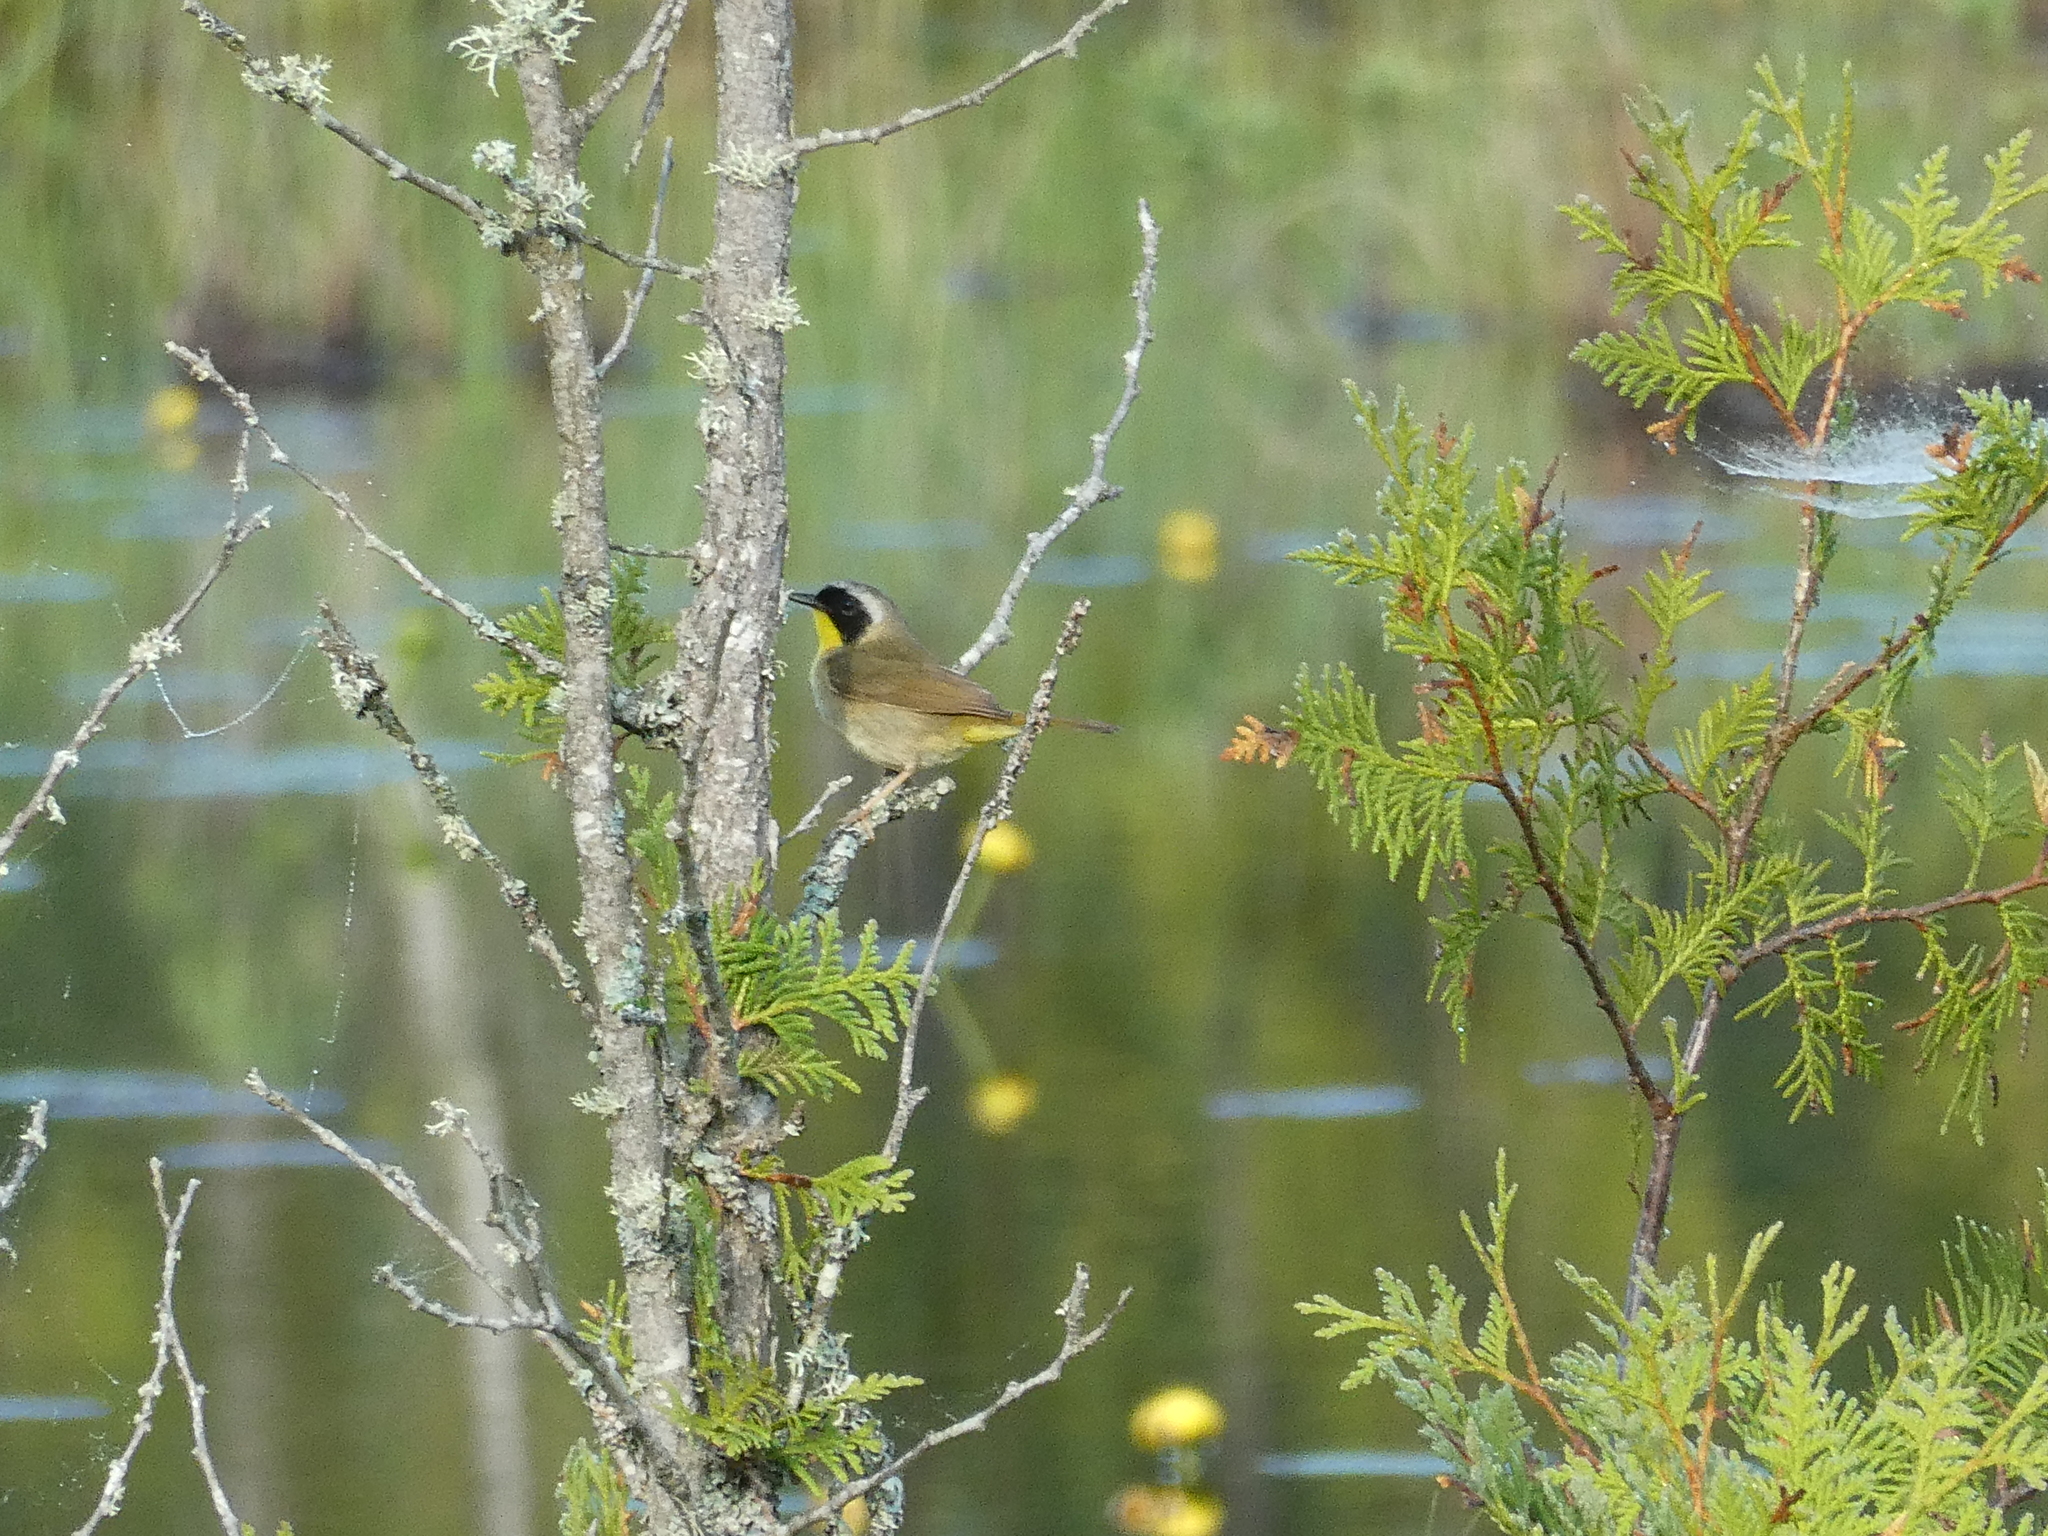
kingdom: Animalia
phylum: Chordata
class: Aves
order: Passeriformes
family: Parulidae
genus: Geothlypis
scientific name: Geothlypis trichas
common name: Common yellowthroat
